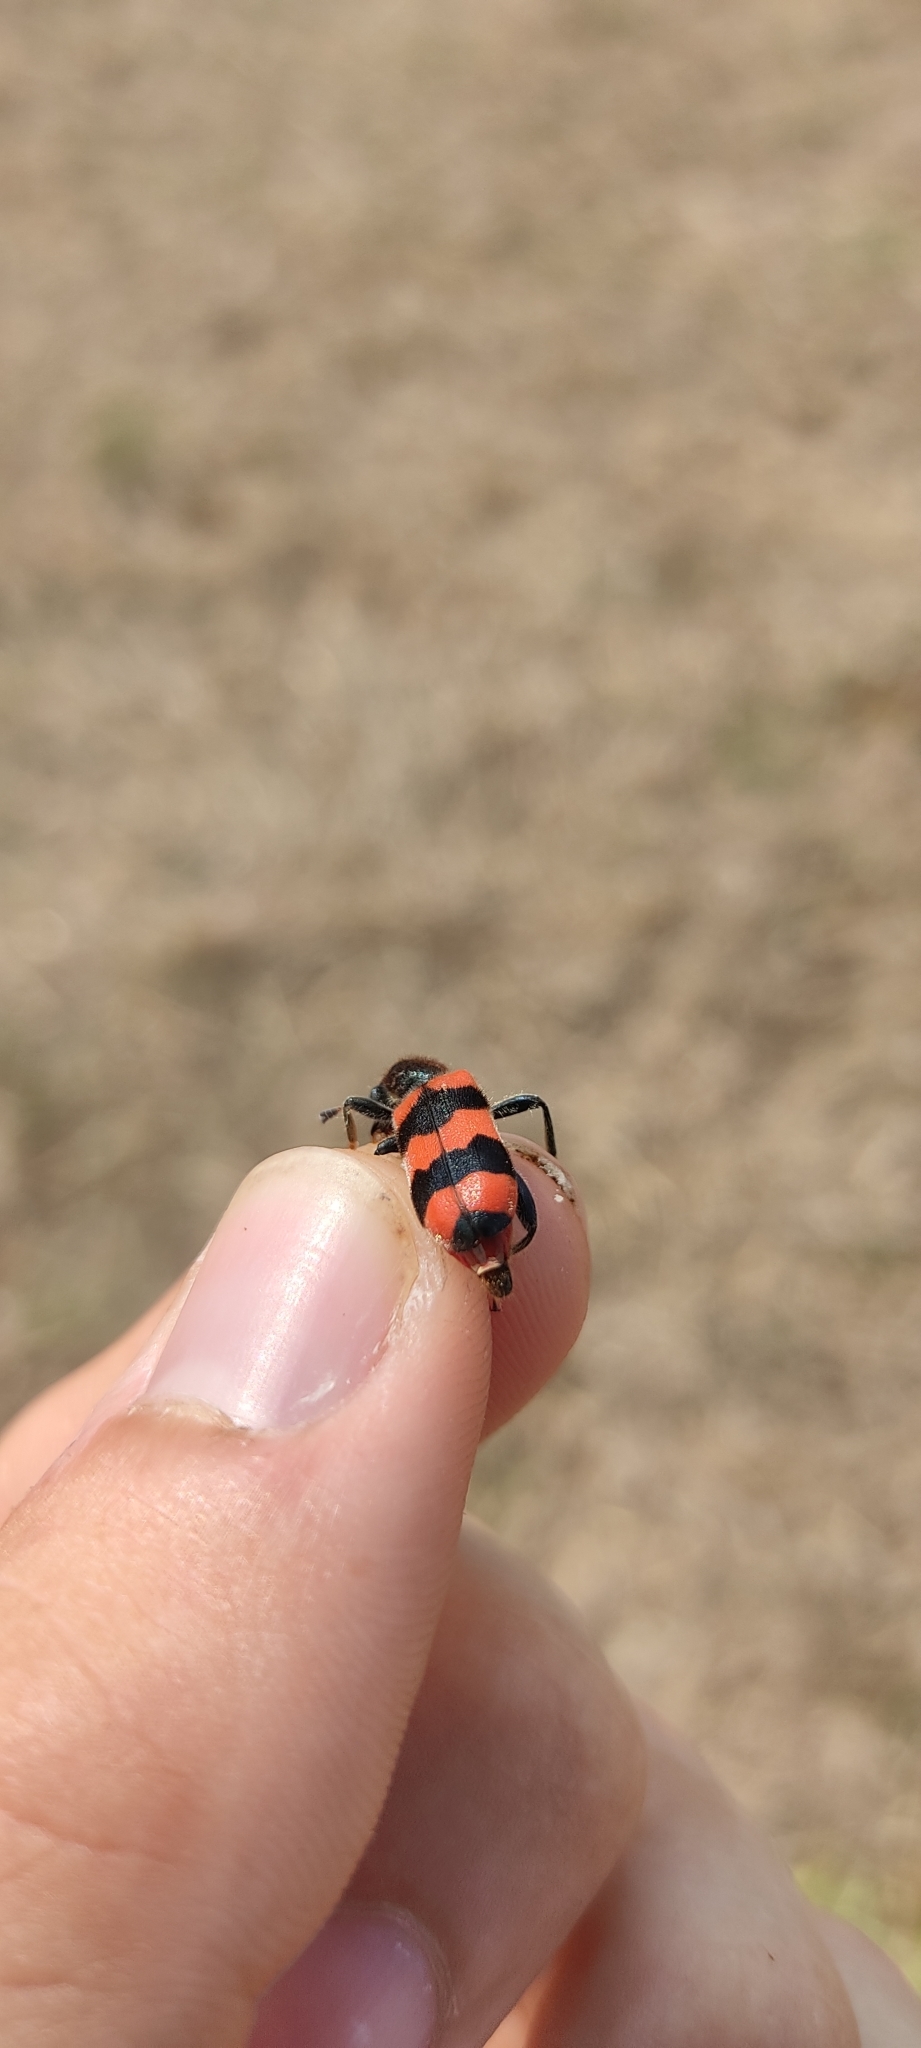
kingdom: Animalia
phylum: Arthropoda
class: Insecta
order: Coleoptera
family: Cleridae
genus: Trichodes
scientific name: Trichodes apiarius
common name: Bee-eating beetle
